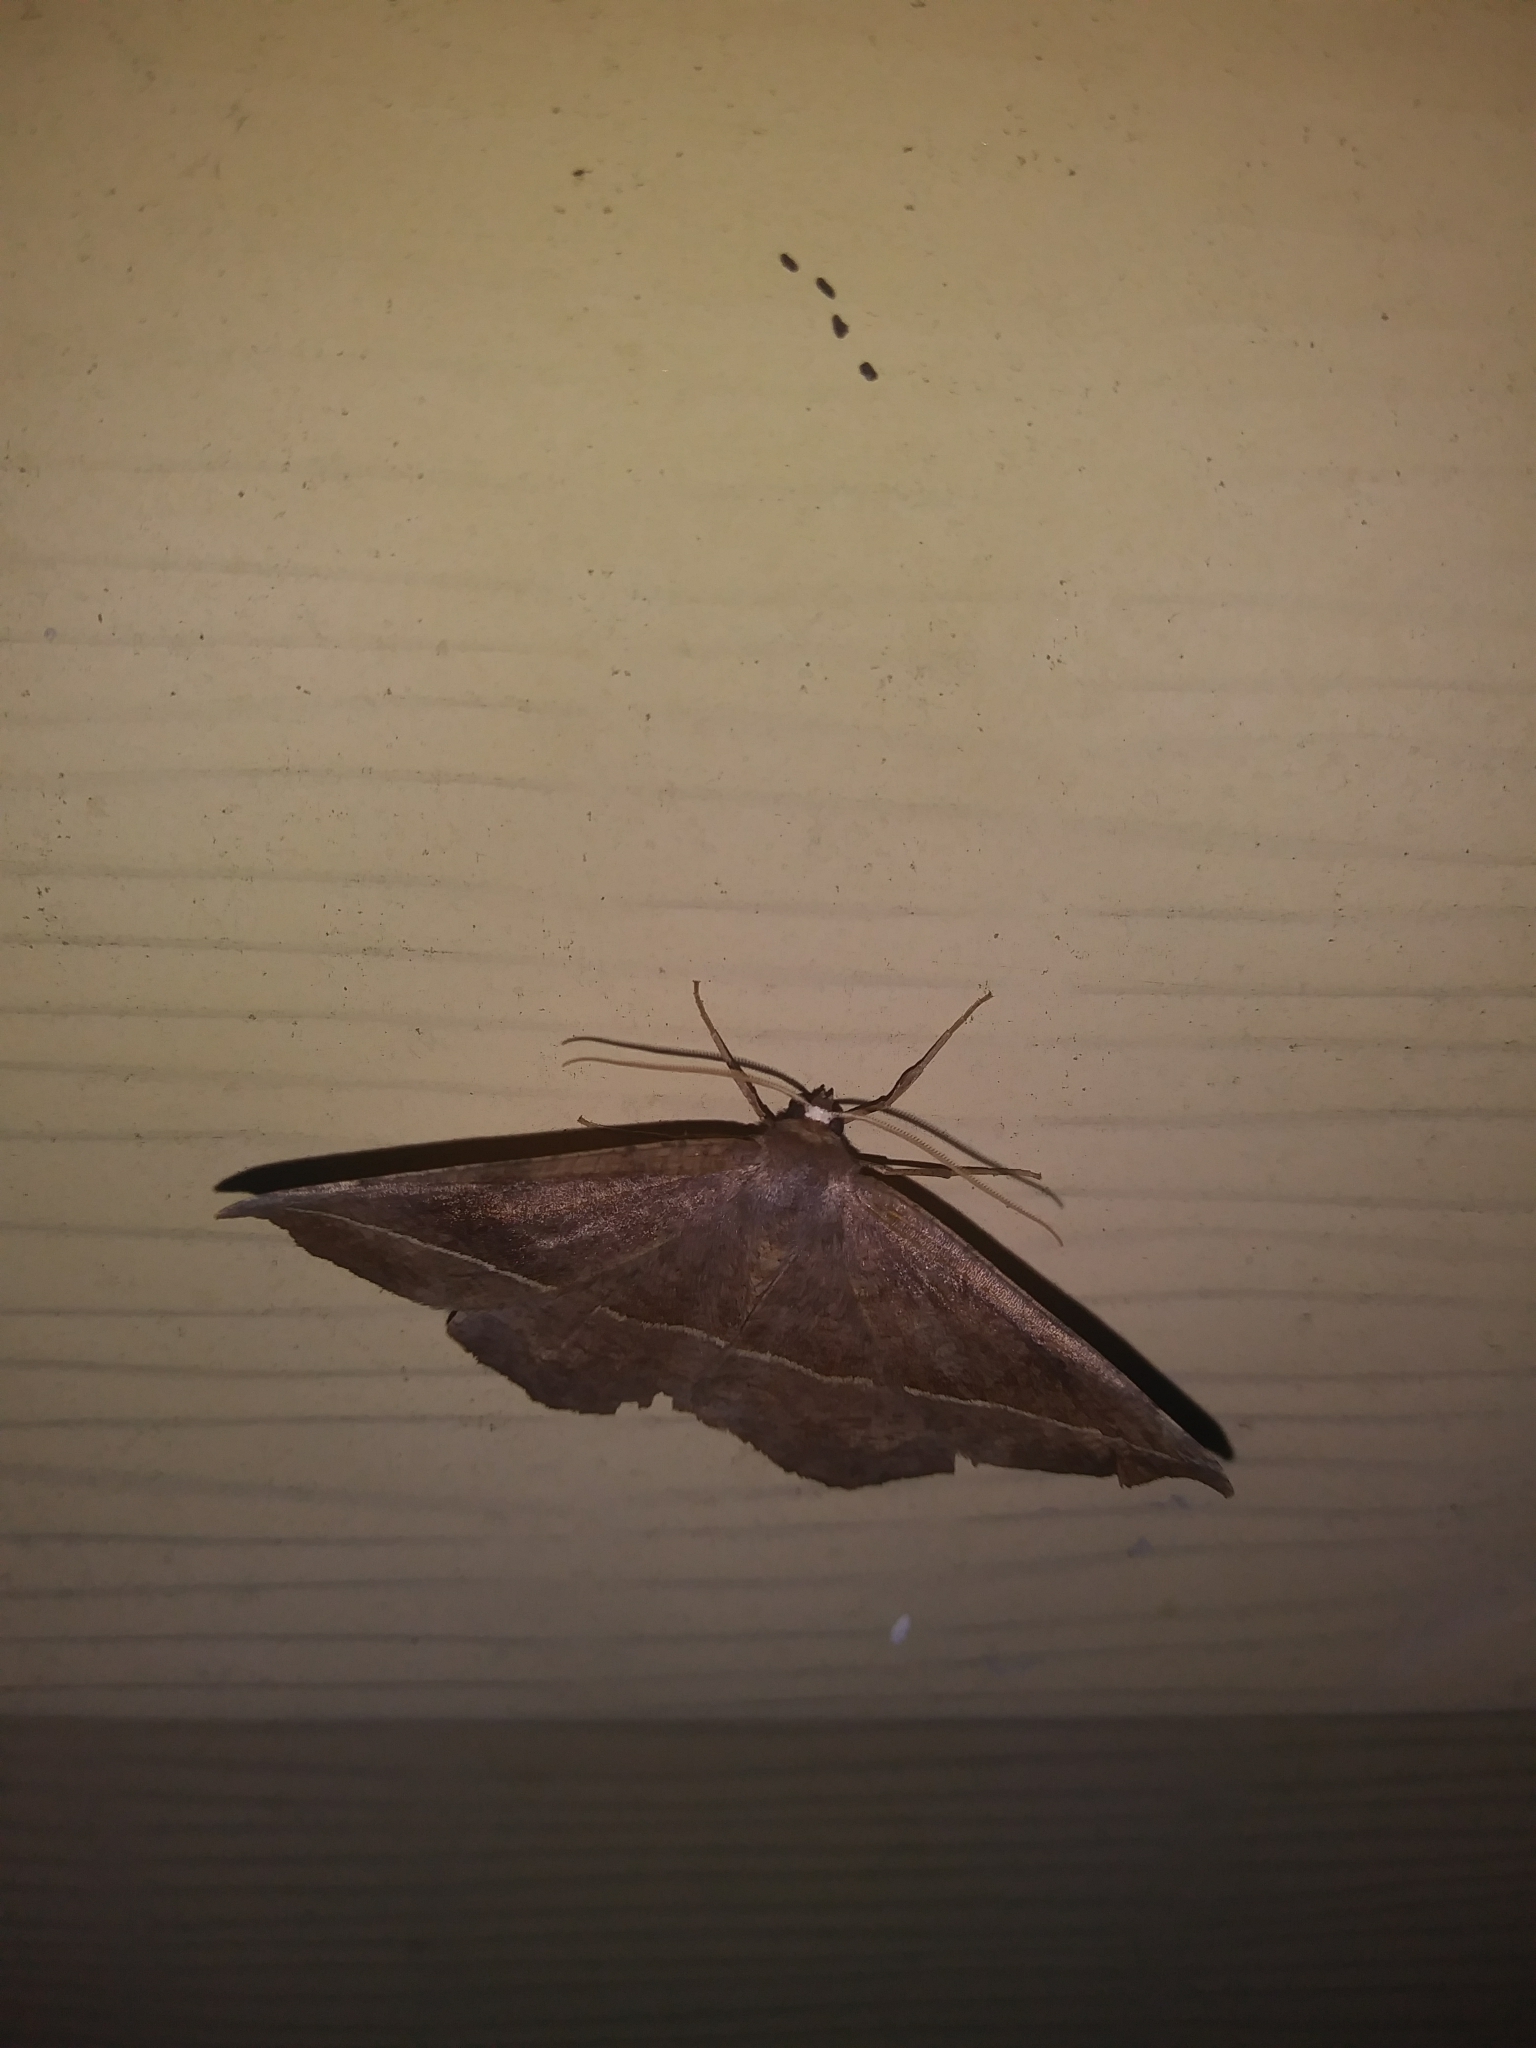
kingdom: Animalia
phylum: Arthropoda
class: Insecta
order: Lepidoptera
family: Geometridae
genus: Eutrapela
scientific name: Eutrapela clemataria
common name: Curved-toothed geometer
